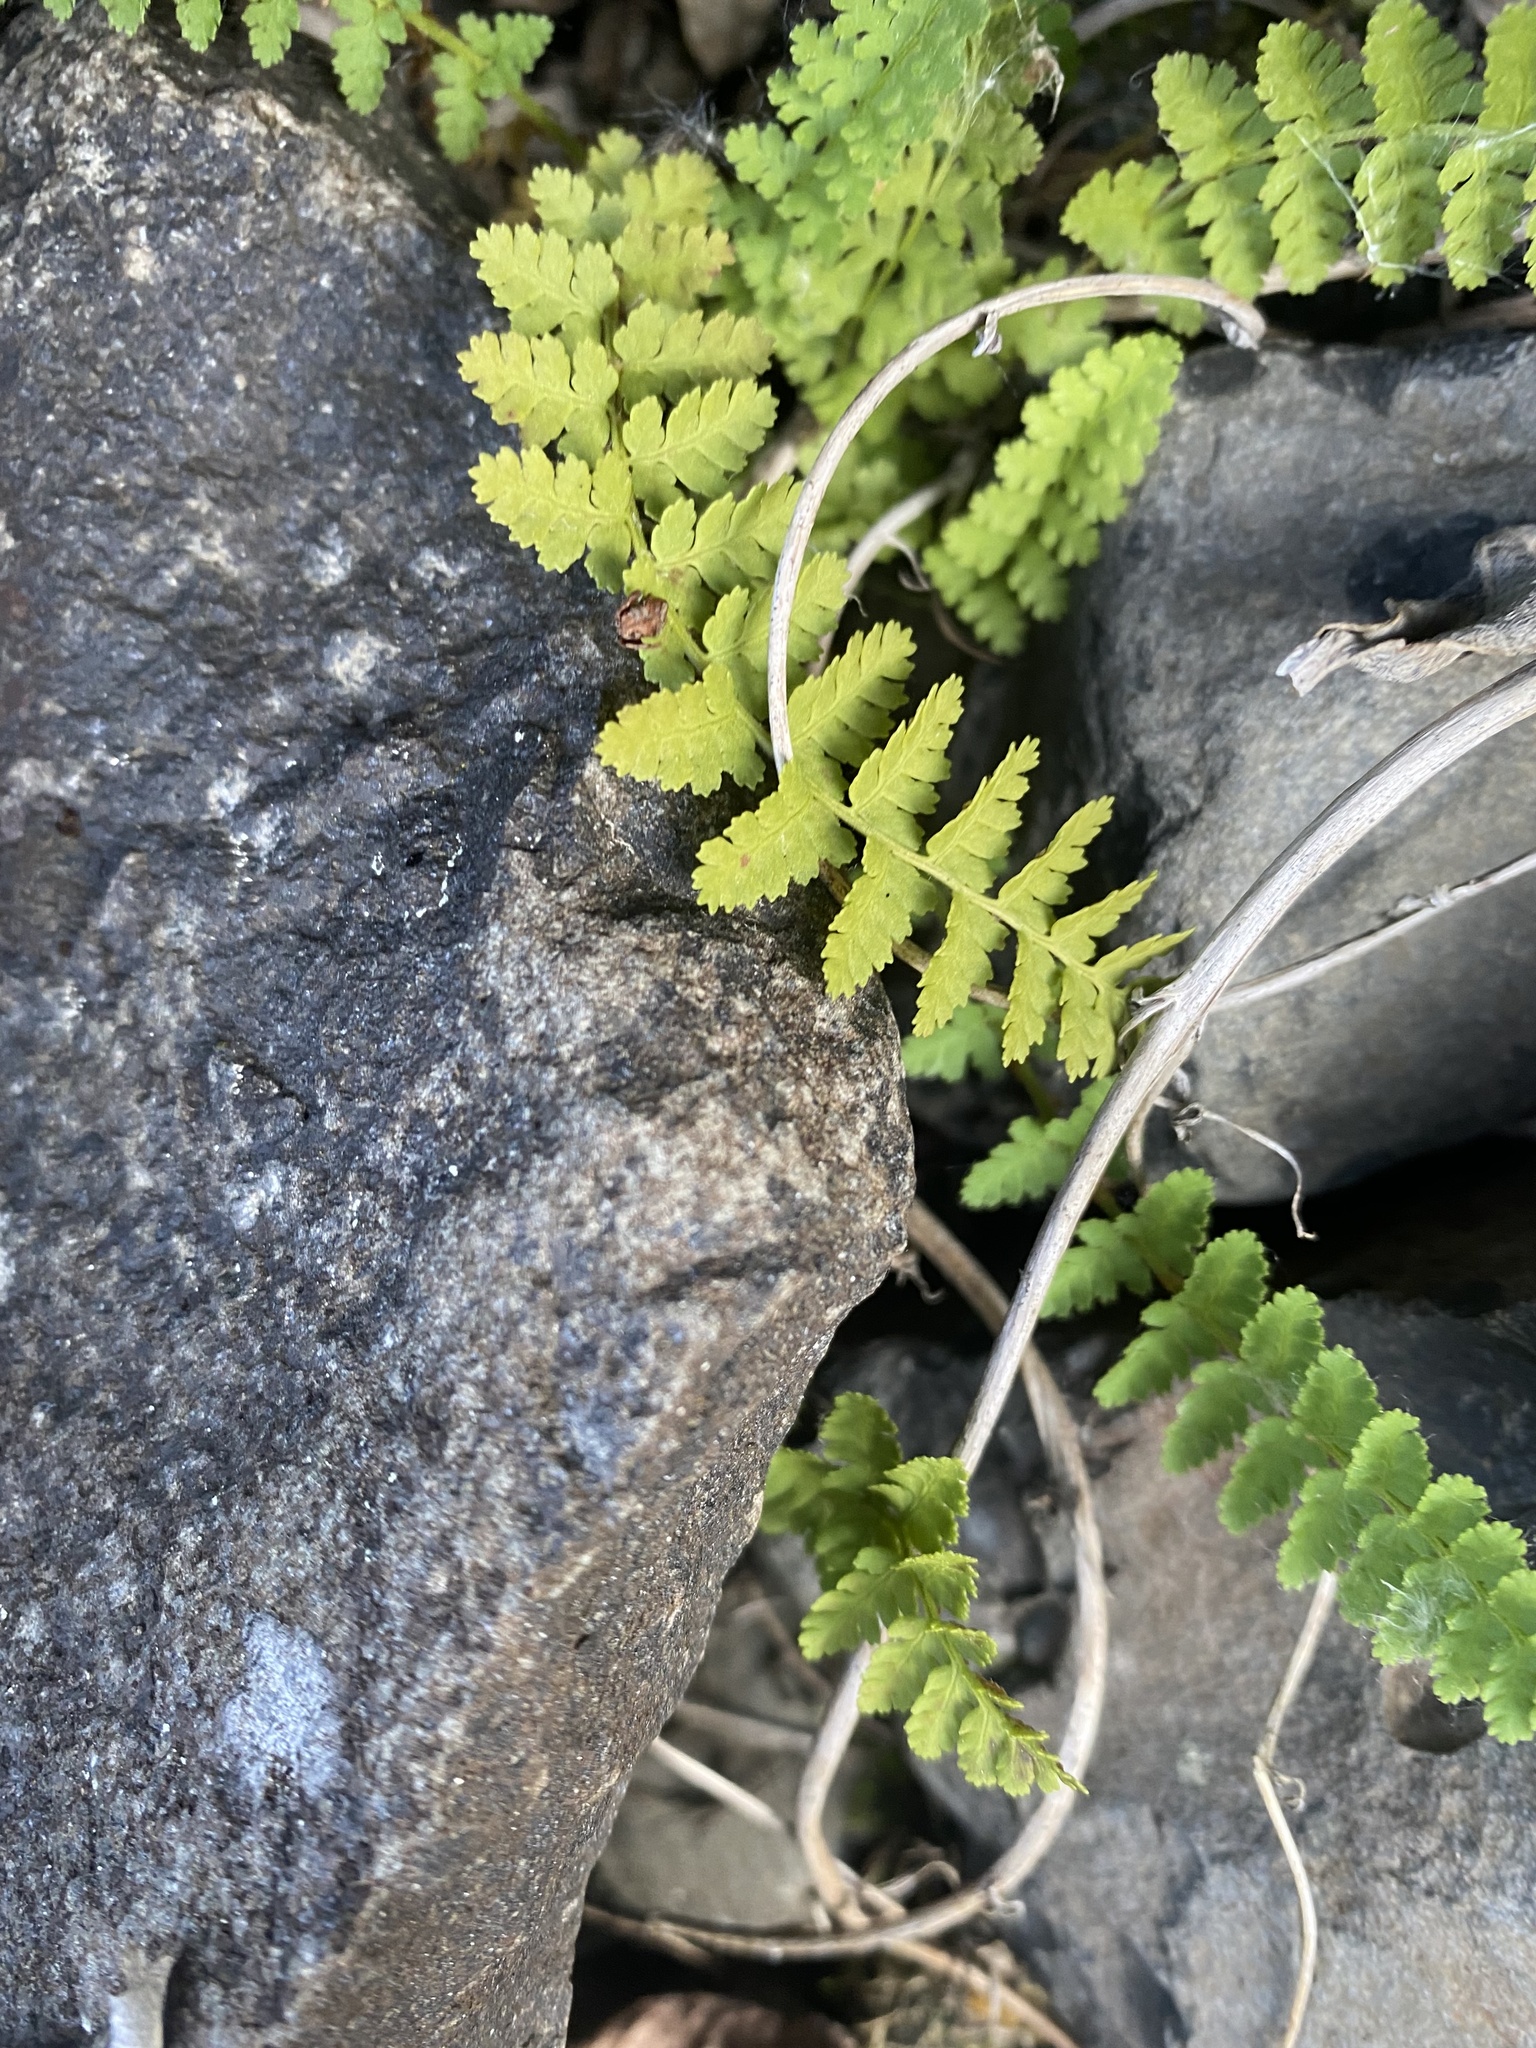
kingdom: Plantae
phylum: Tracheophyta
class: Polypodiopsida
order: Polypodiales
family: Dryopteridaceae
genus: Dryopteris
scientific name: Dryopteris fragrans
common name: Fragrant wood fern
